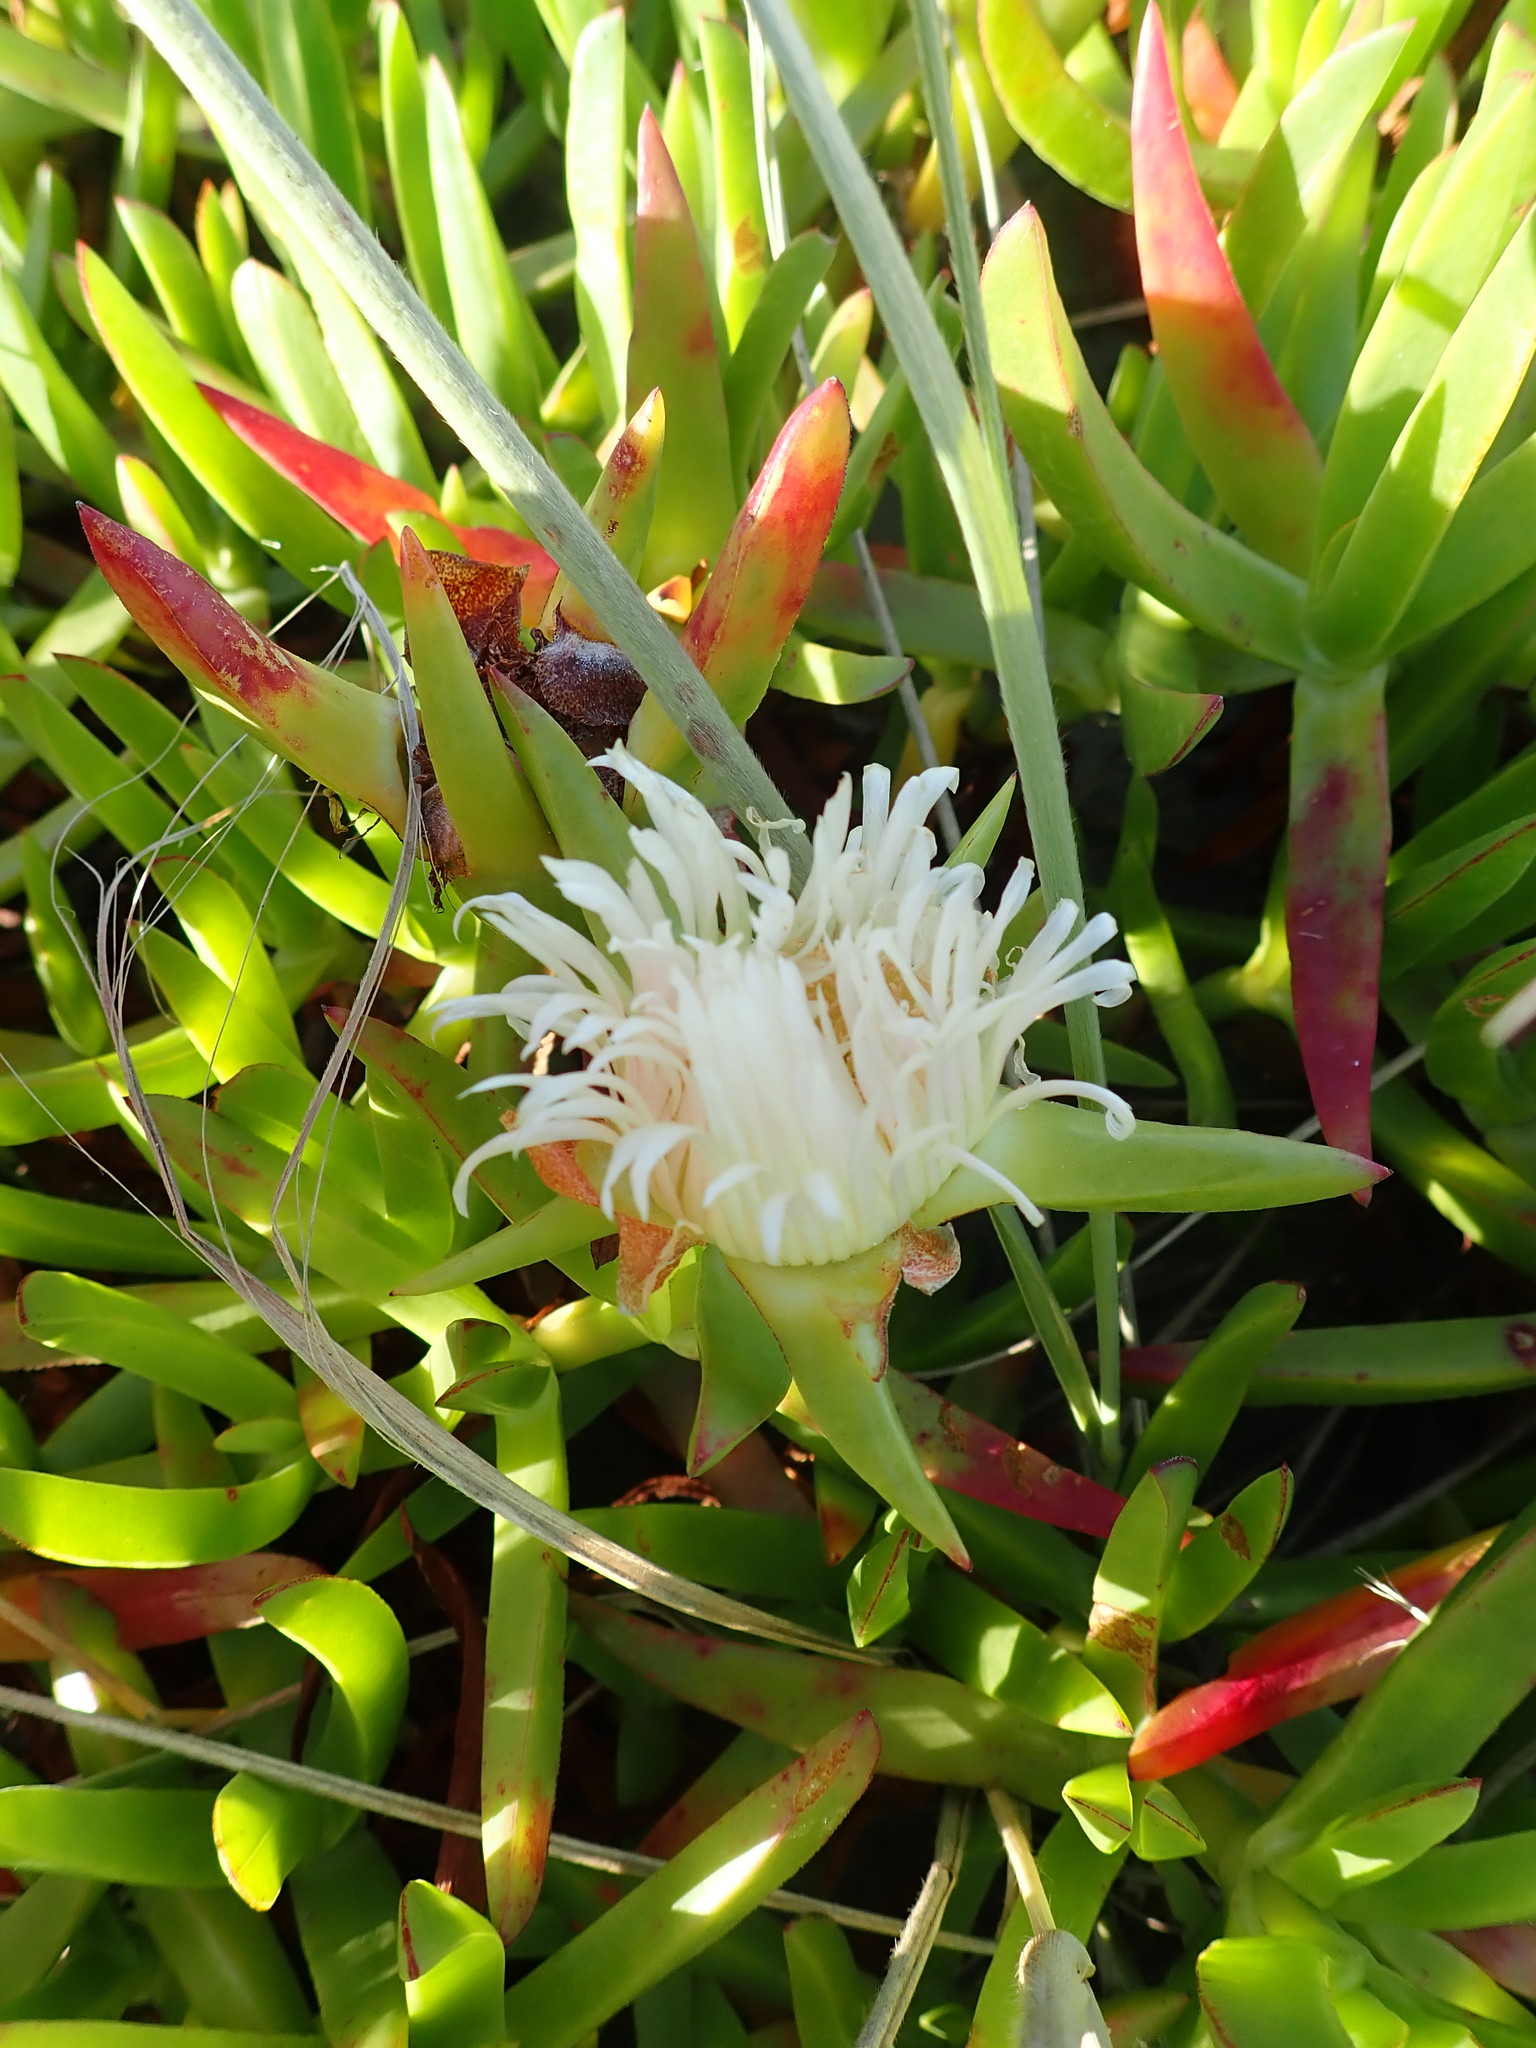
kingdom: Plantae
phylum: Tracheophyta
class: Magnoliopsida
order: Caryophyllales
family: Aizoaceae
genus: Carpobrotus
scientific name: Carpobrotus edulis
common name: Hottentot-fig
